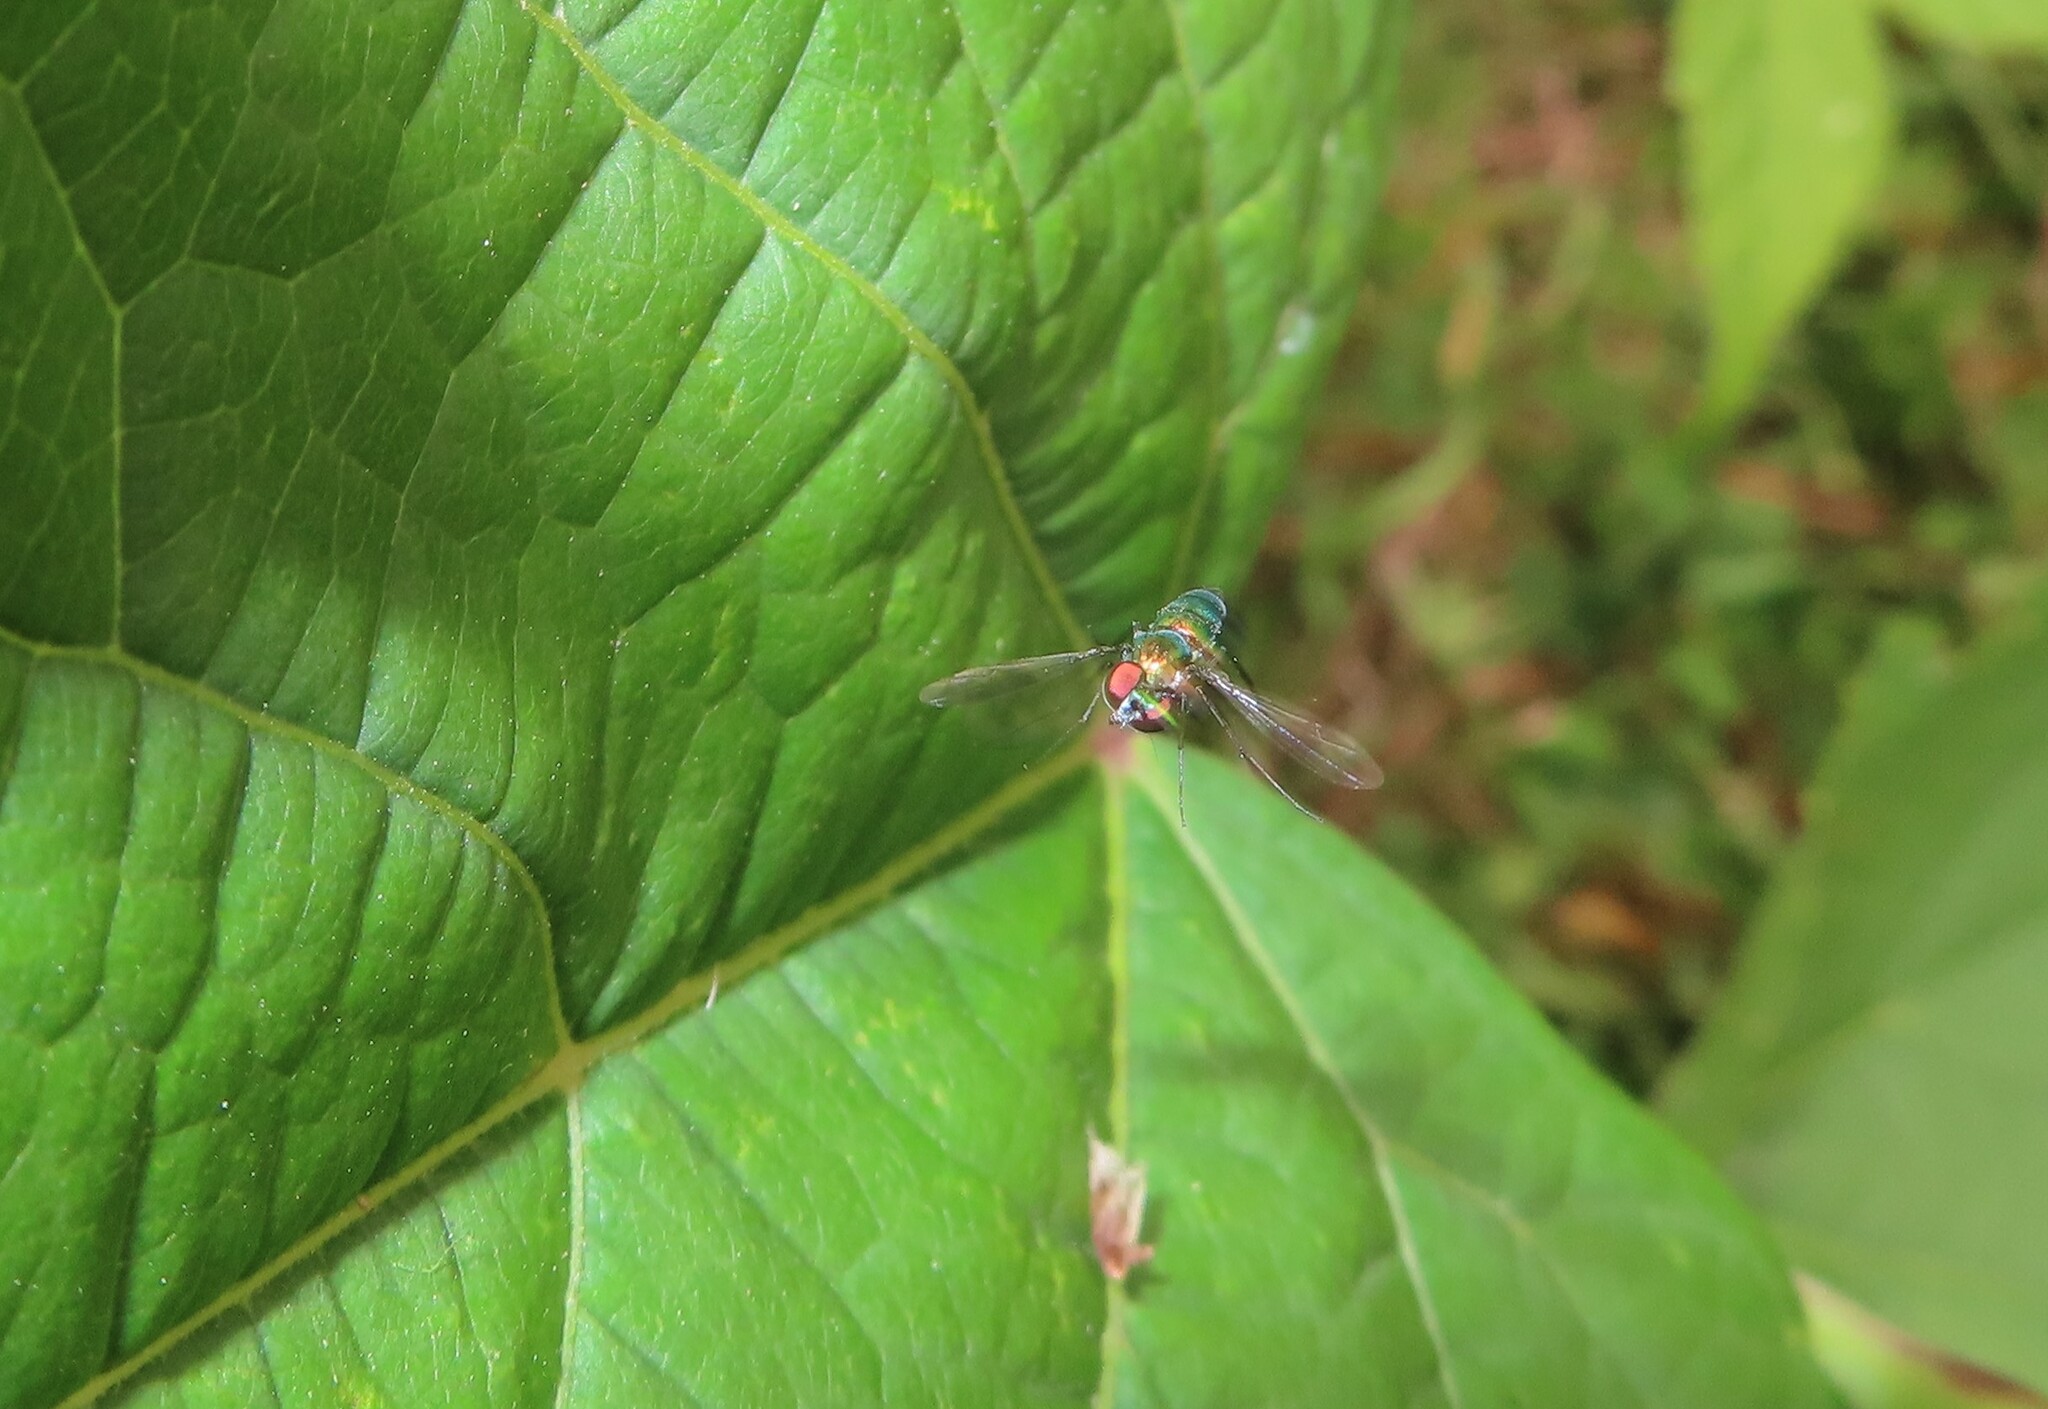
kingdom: Animalia
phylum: Arthropoda
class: Insecta
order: Diptera
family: Dolichopodidae
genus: Condylostylus
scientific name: Condylostylus patibulatus
